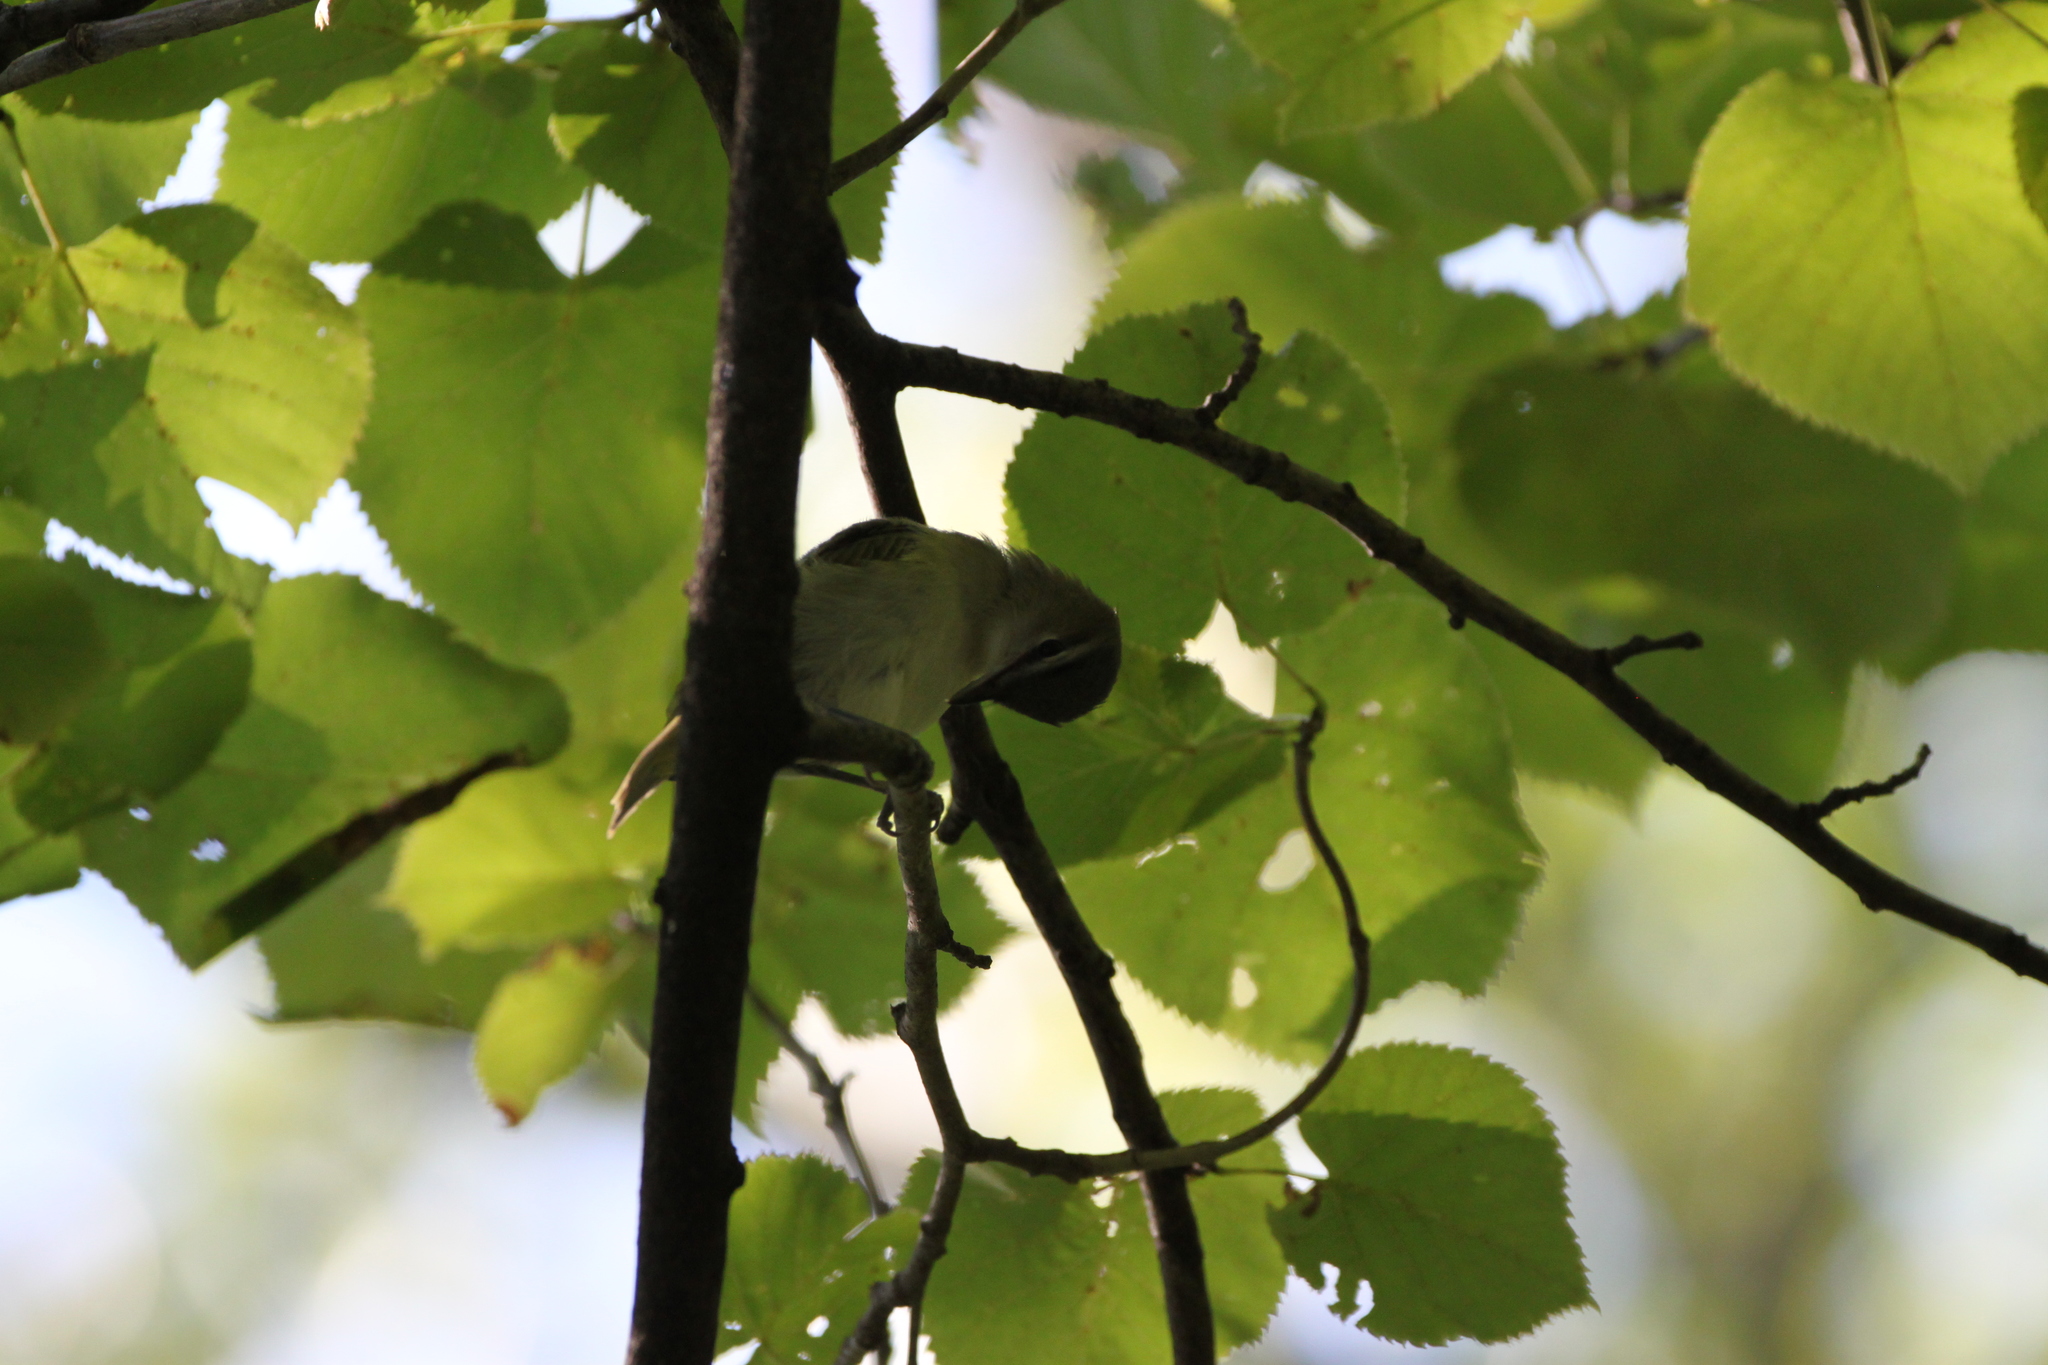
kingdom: Animalia
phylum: Chordata
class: Aves
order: Passeriformes
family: Vireonidae
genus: Vireo
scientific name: Vireo olivaceus
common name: Red-eyed vireo
